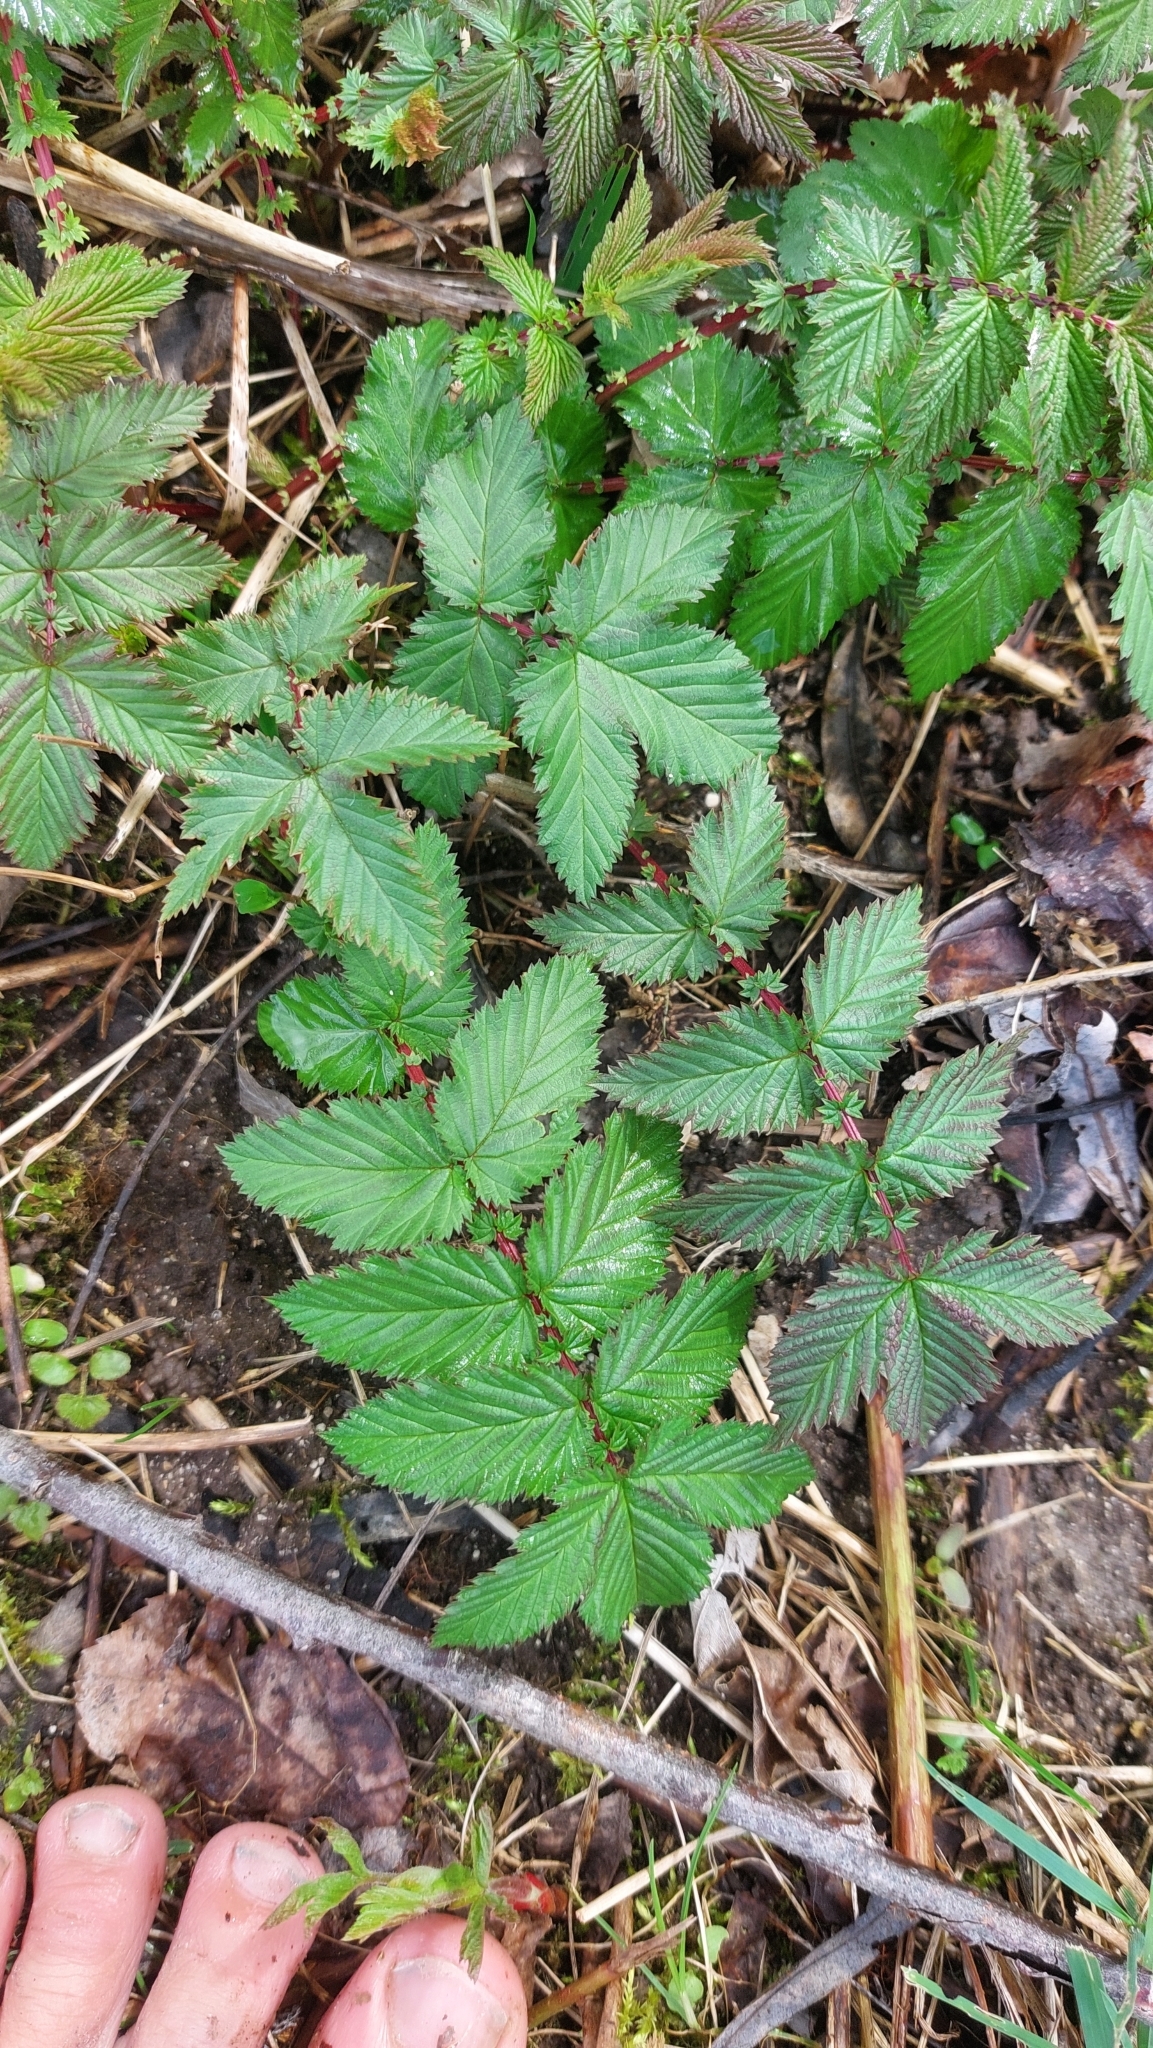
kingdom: Plantae
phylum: Tracheophyta
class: Magnoliopsida
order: Rosales
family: Rosaceae
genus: Filipendula
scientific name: Filipendula ulmaria
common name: Meadowsweet
